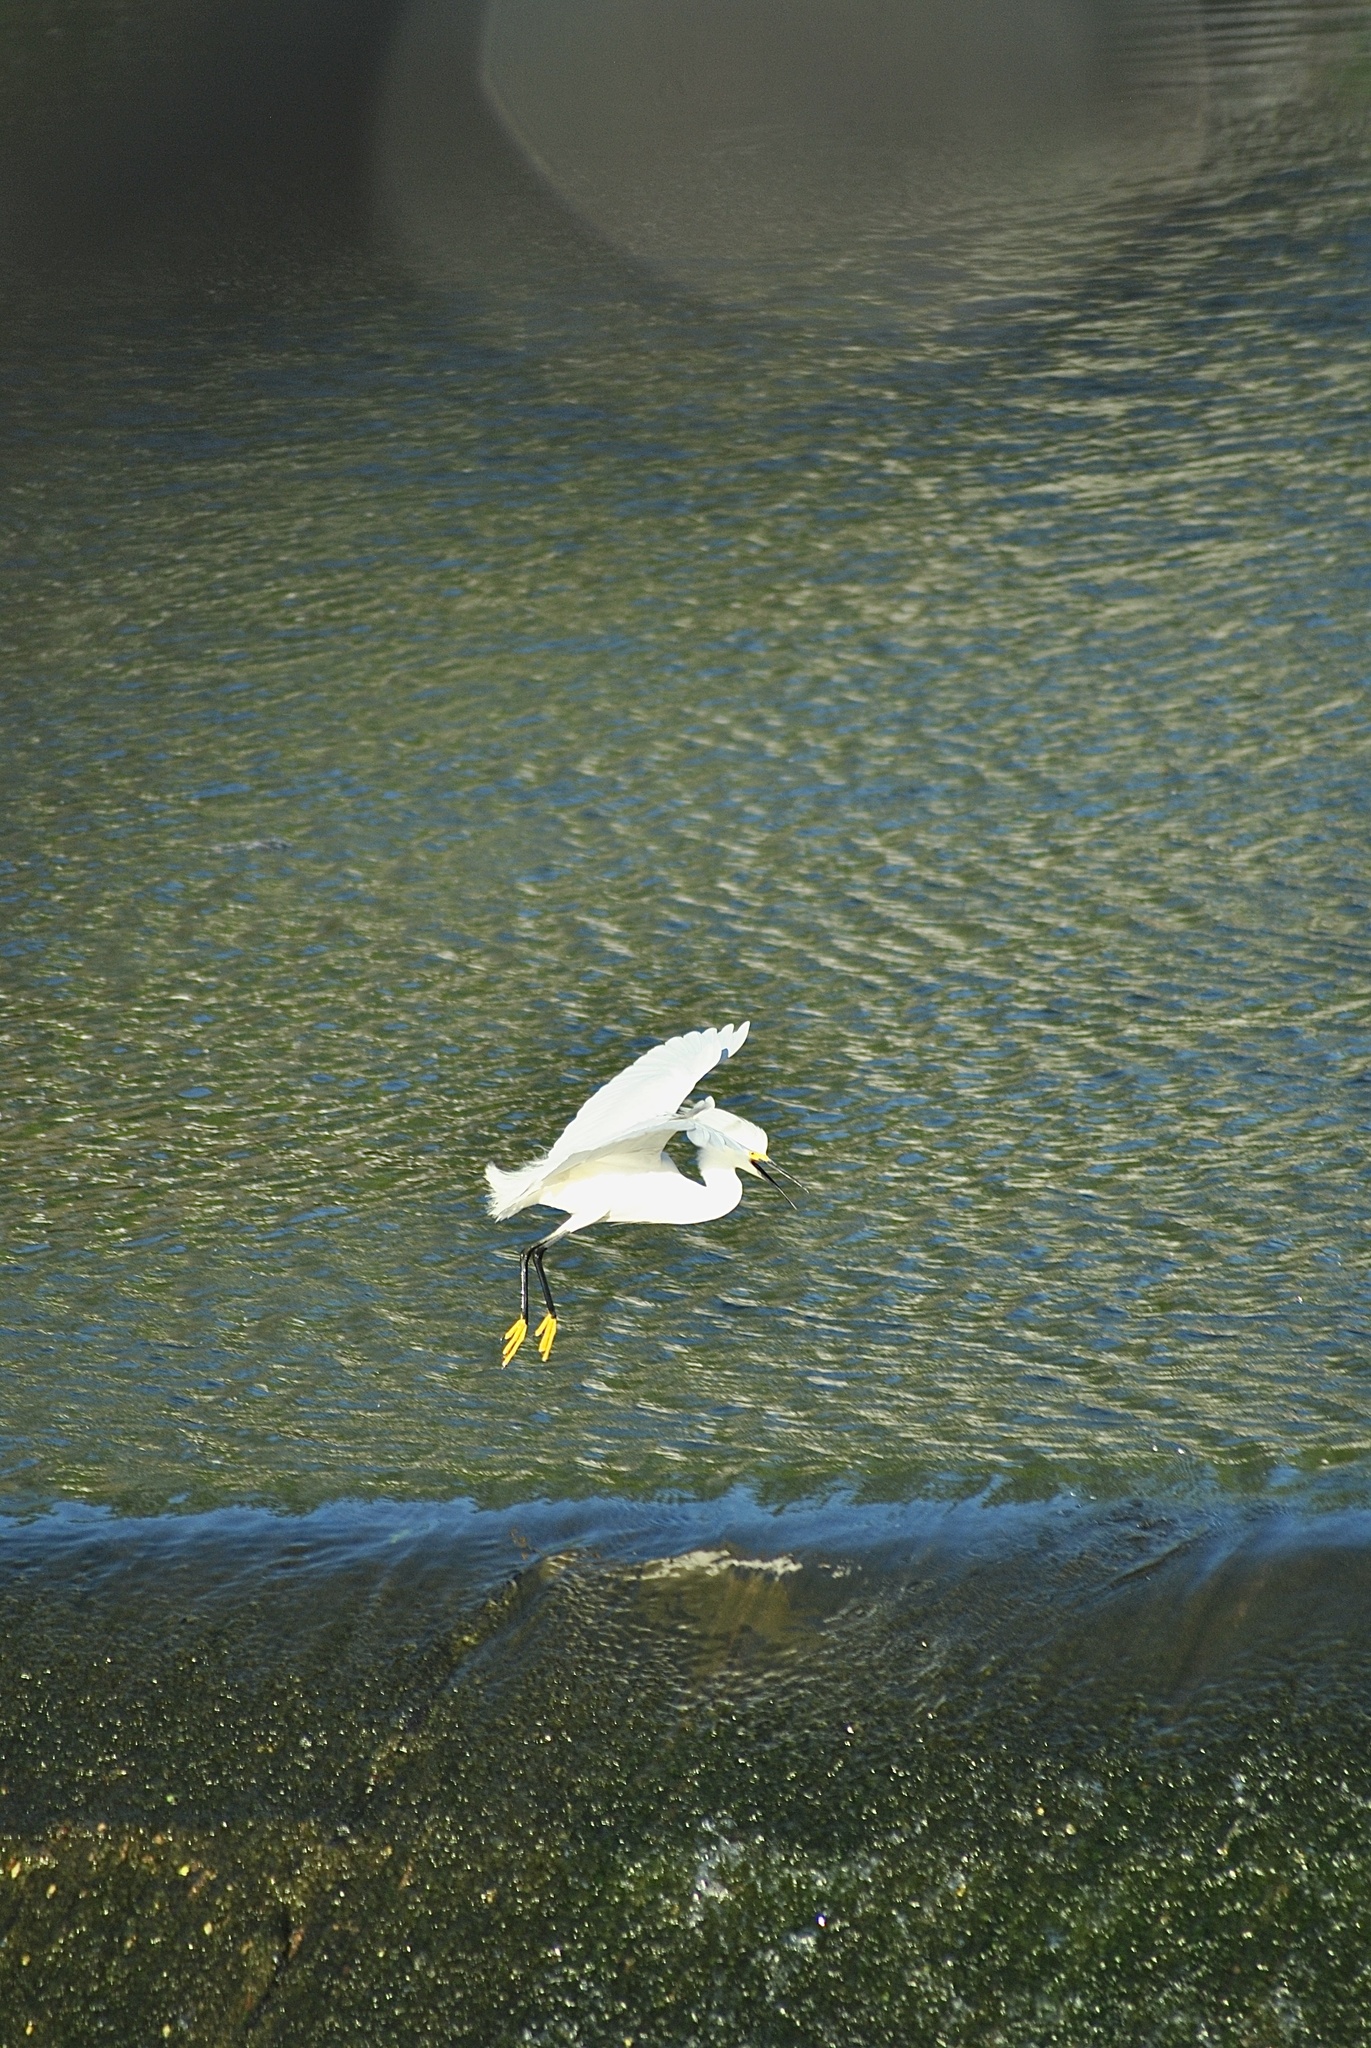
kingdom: Animalia
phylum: Chordata
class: Aves
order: Pelecaniformes
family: Ardeidae
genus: Egretta
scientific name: Egretta thula
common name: Snowy egret
